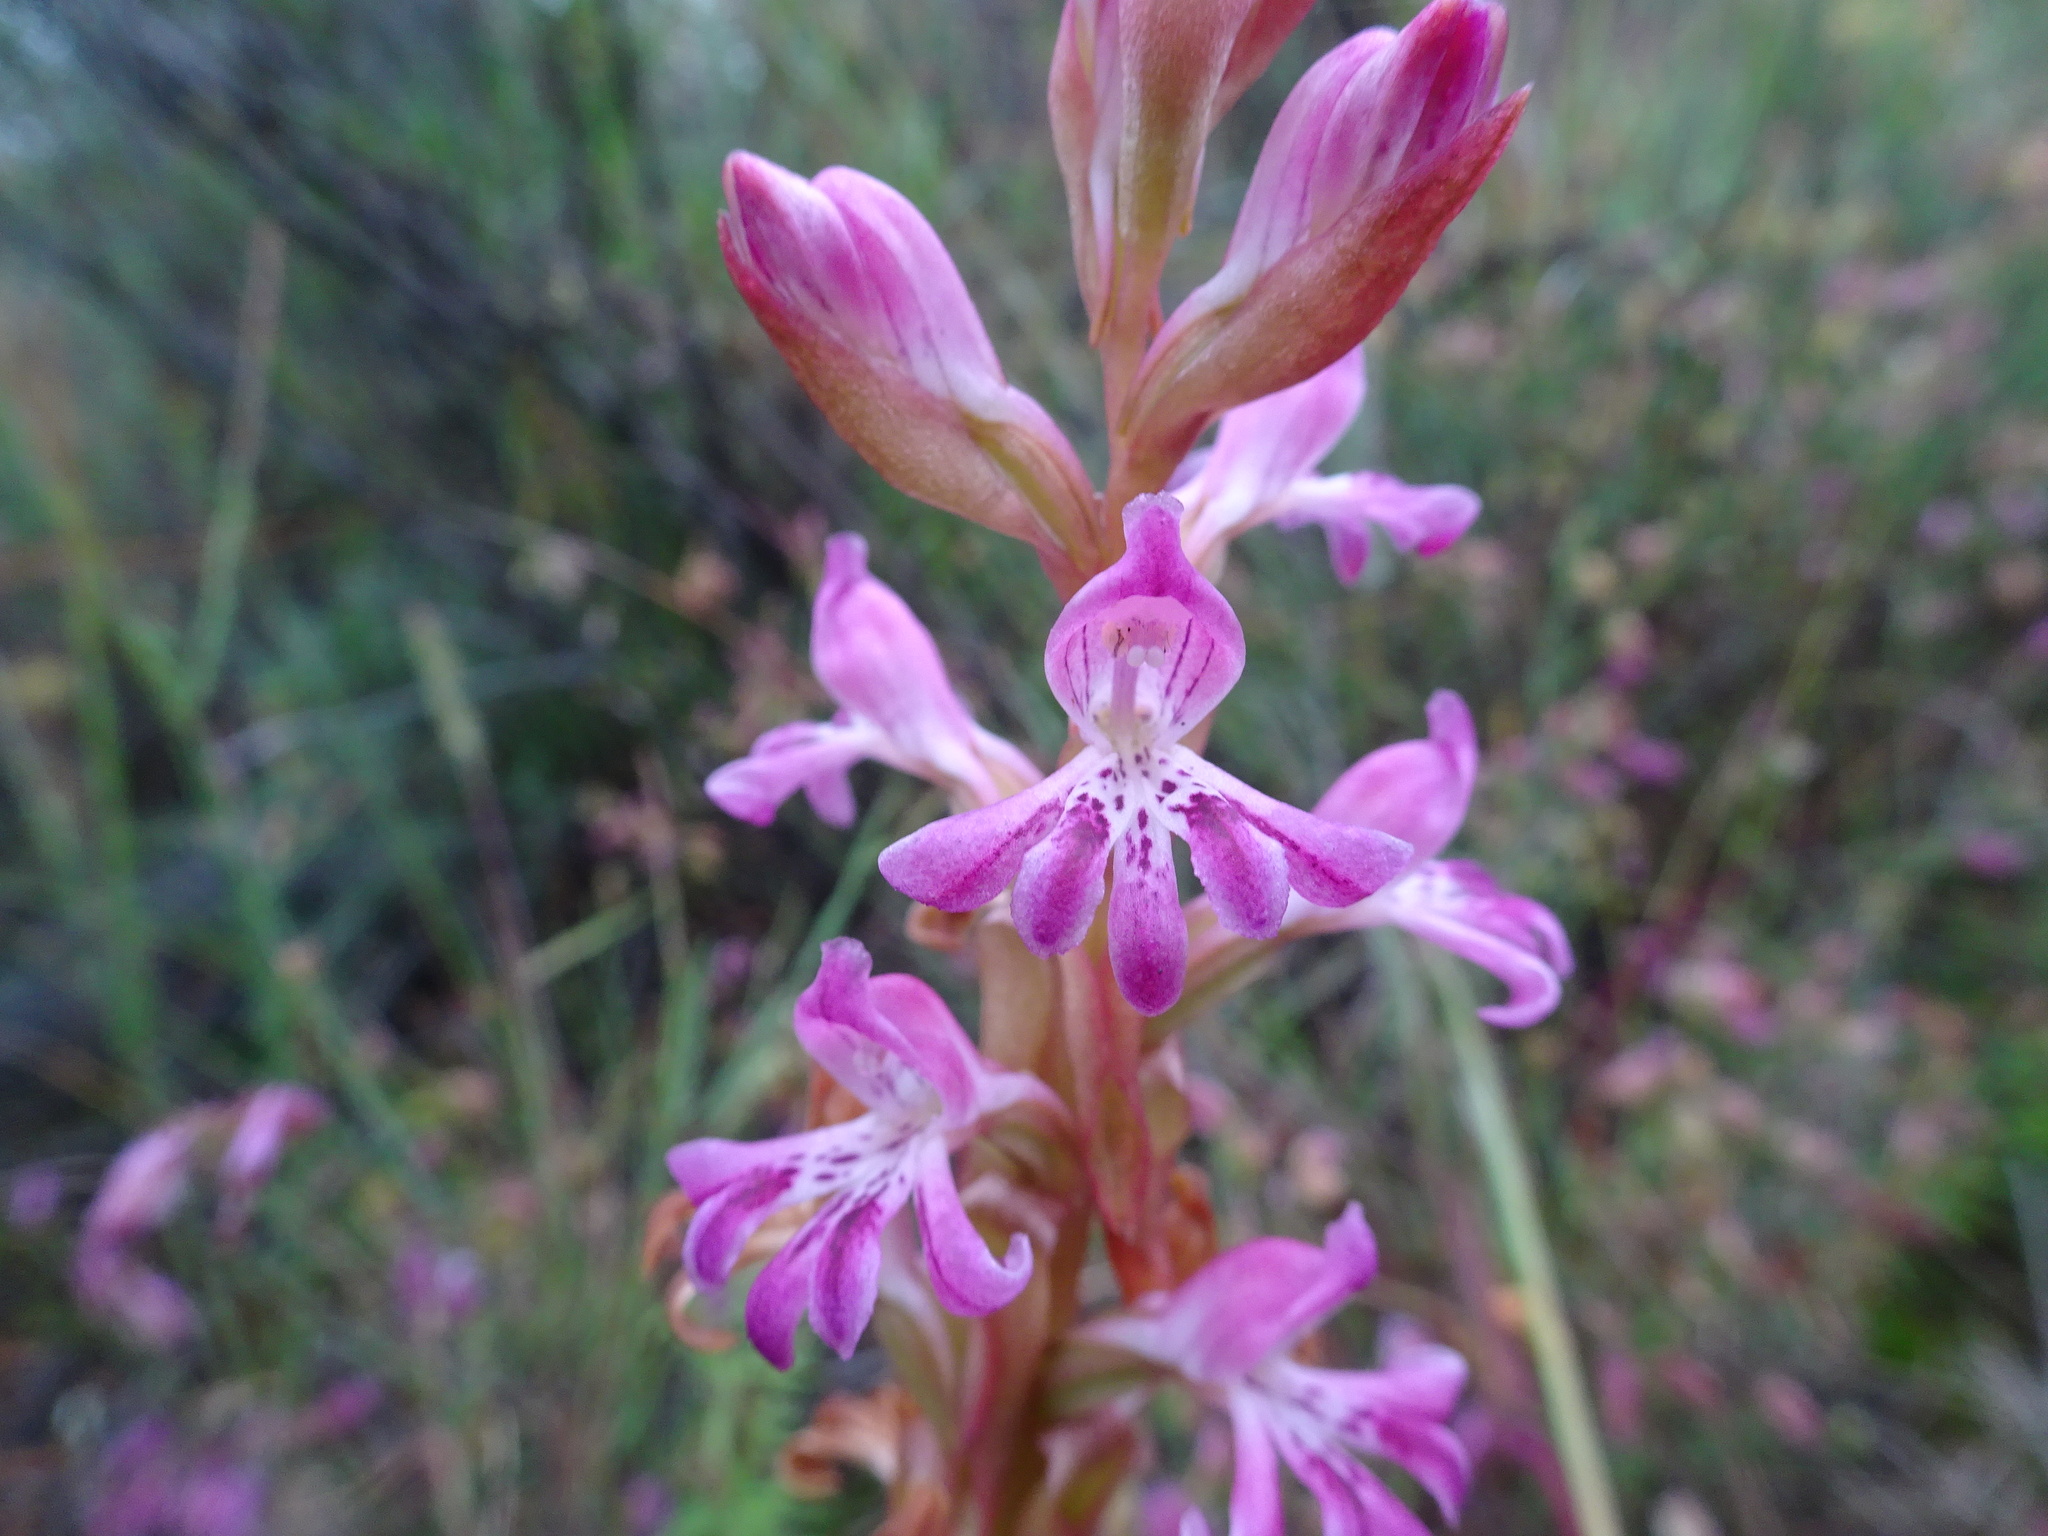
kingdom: Plantae
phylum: Tracheophyta
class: Liliopsida
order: Asparagales
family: Orchidaceae
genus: Satyrium
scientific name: Satyrium erectum
